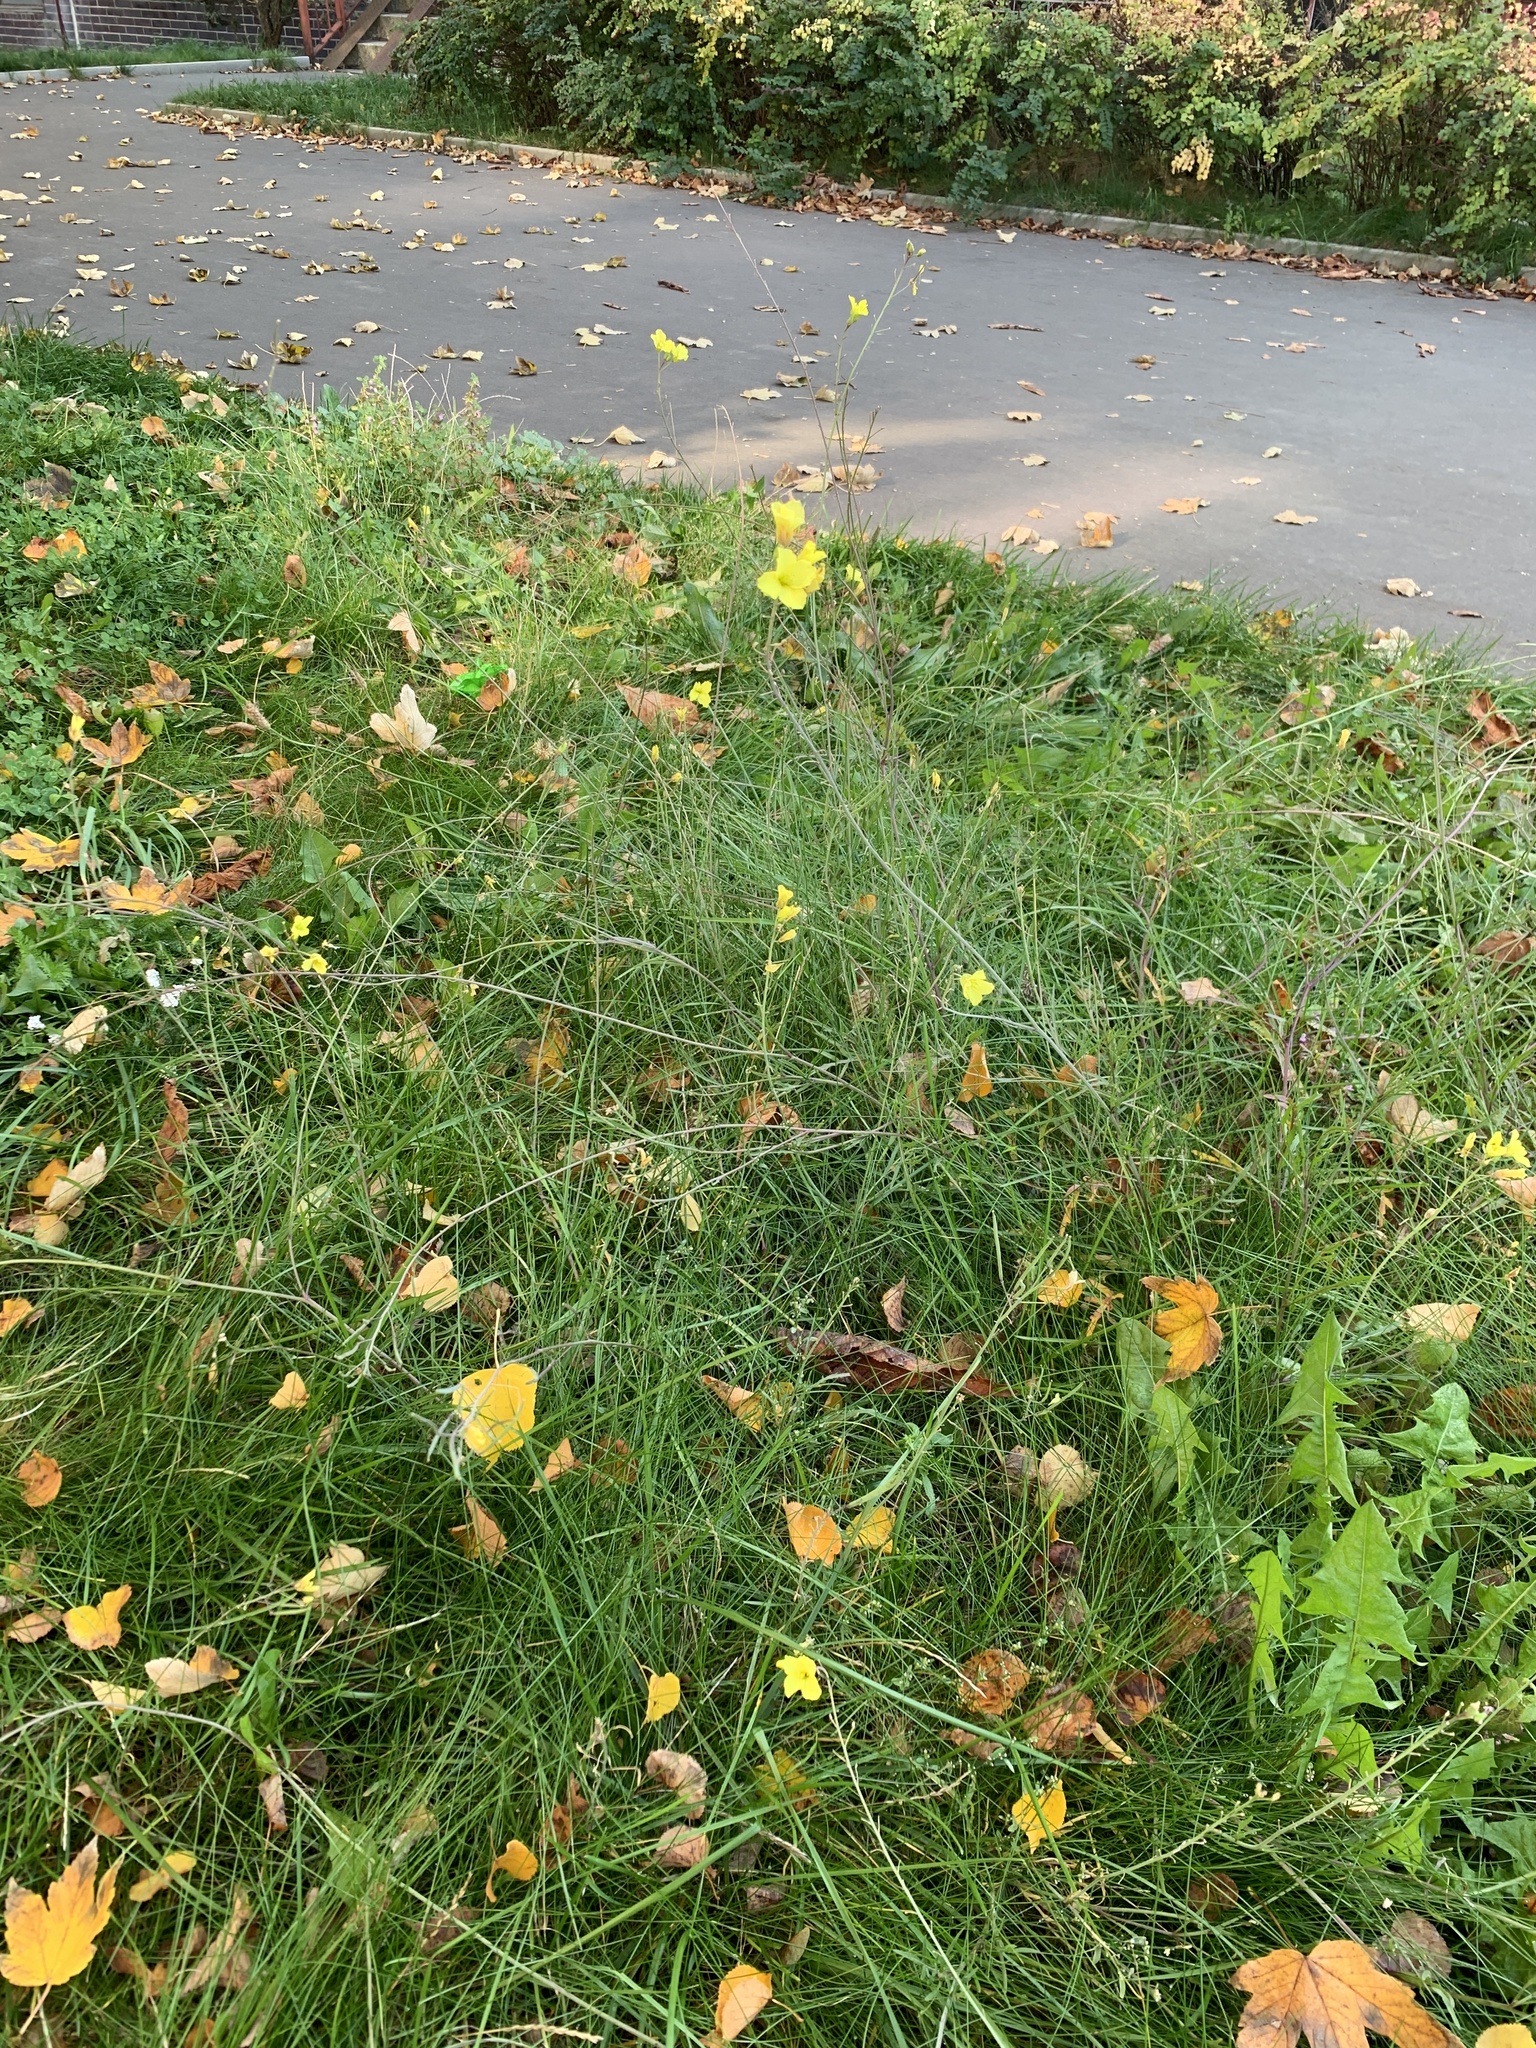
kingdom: Plantae
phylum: Tracheophyta
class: Magnoliopsida
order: Brassicales
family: Brassicaceae
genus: Diplotaxis
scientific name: Diplotaxis tenuifolia
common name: Perennial wall-rocket
